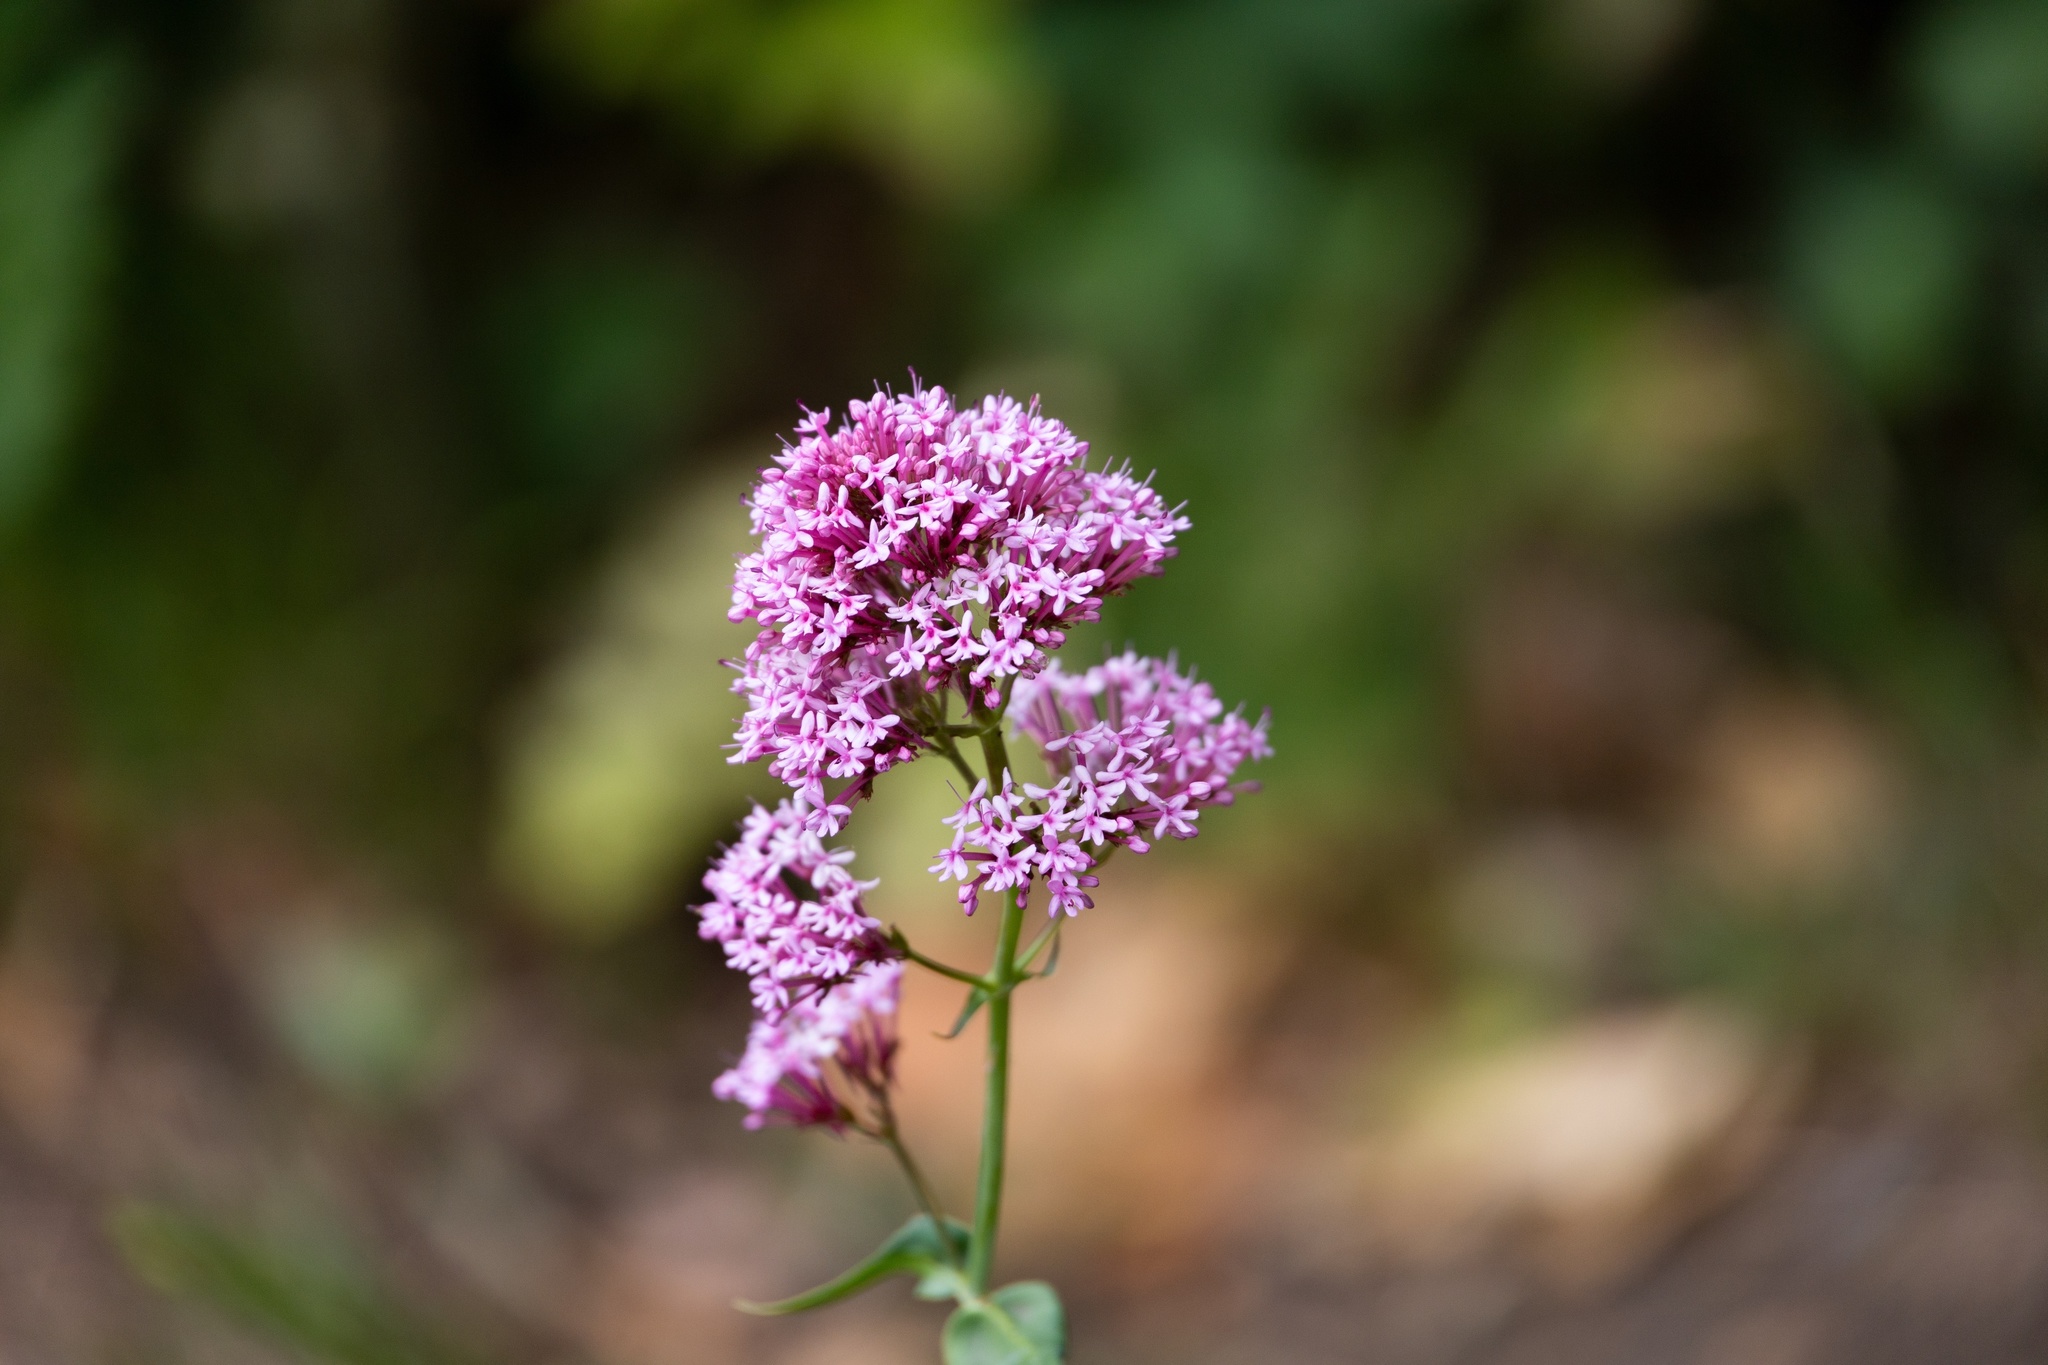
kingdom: Plantae
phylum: Tracheophyta
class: Magnoliopsida
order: Dipsacales
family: Caprifoliaceae
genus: Centranthus
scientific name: Centranthus ruber
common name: Red valerian
